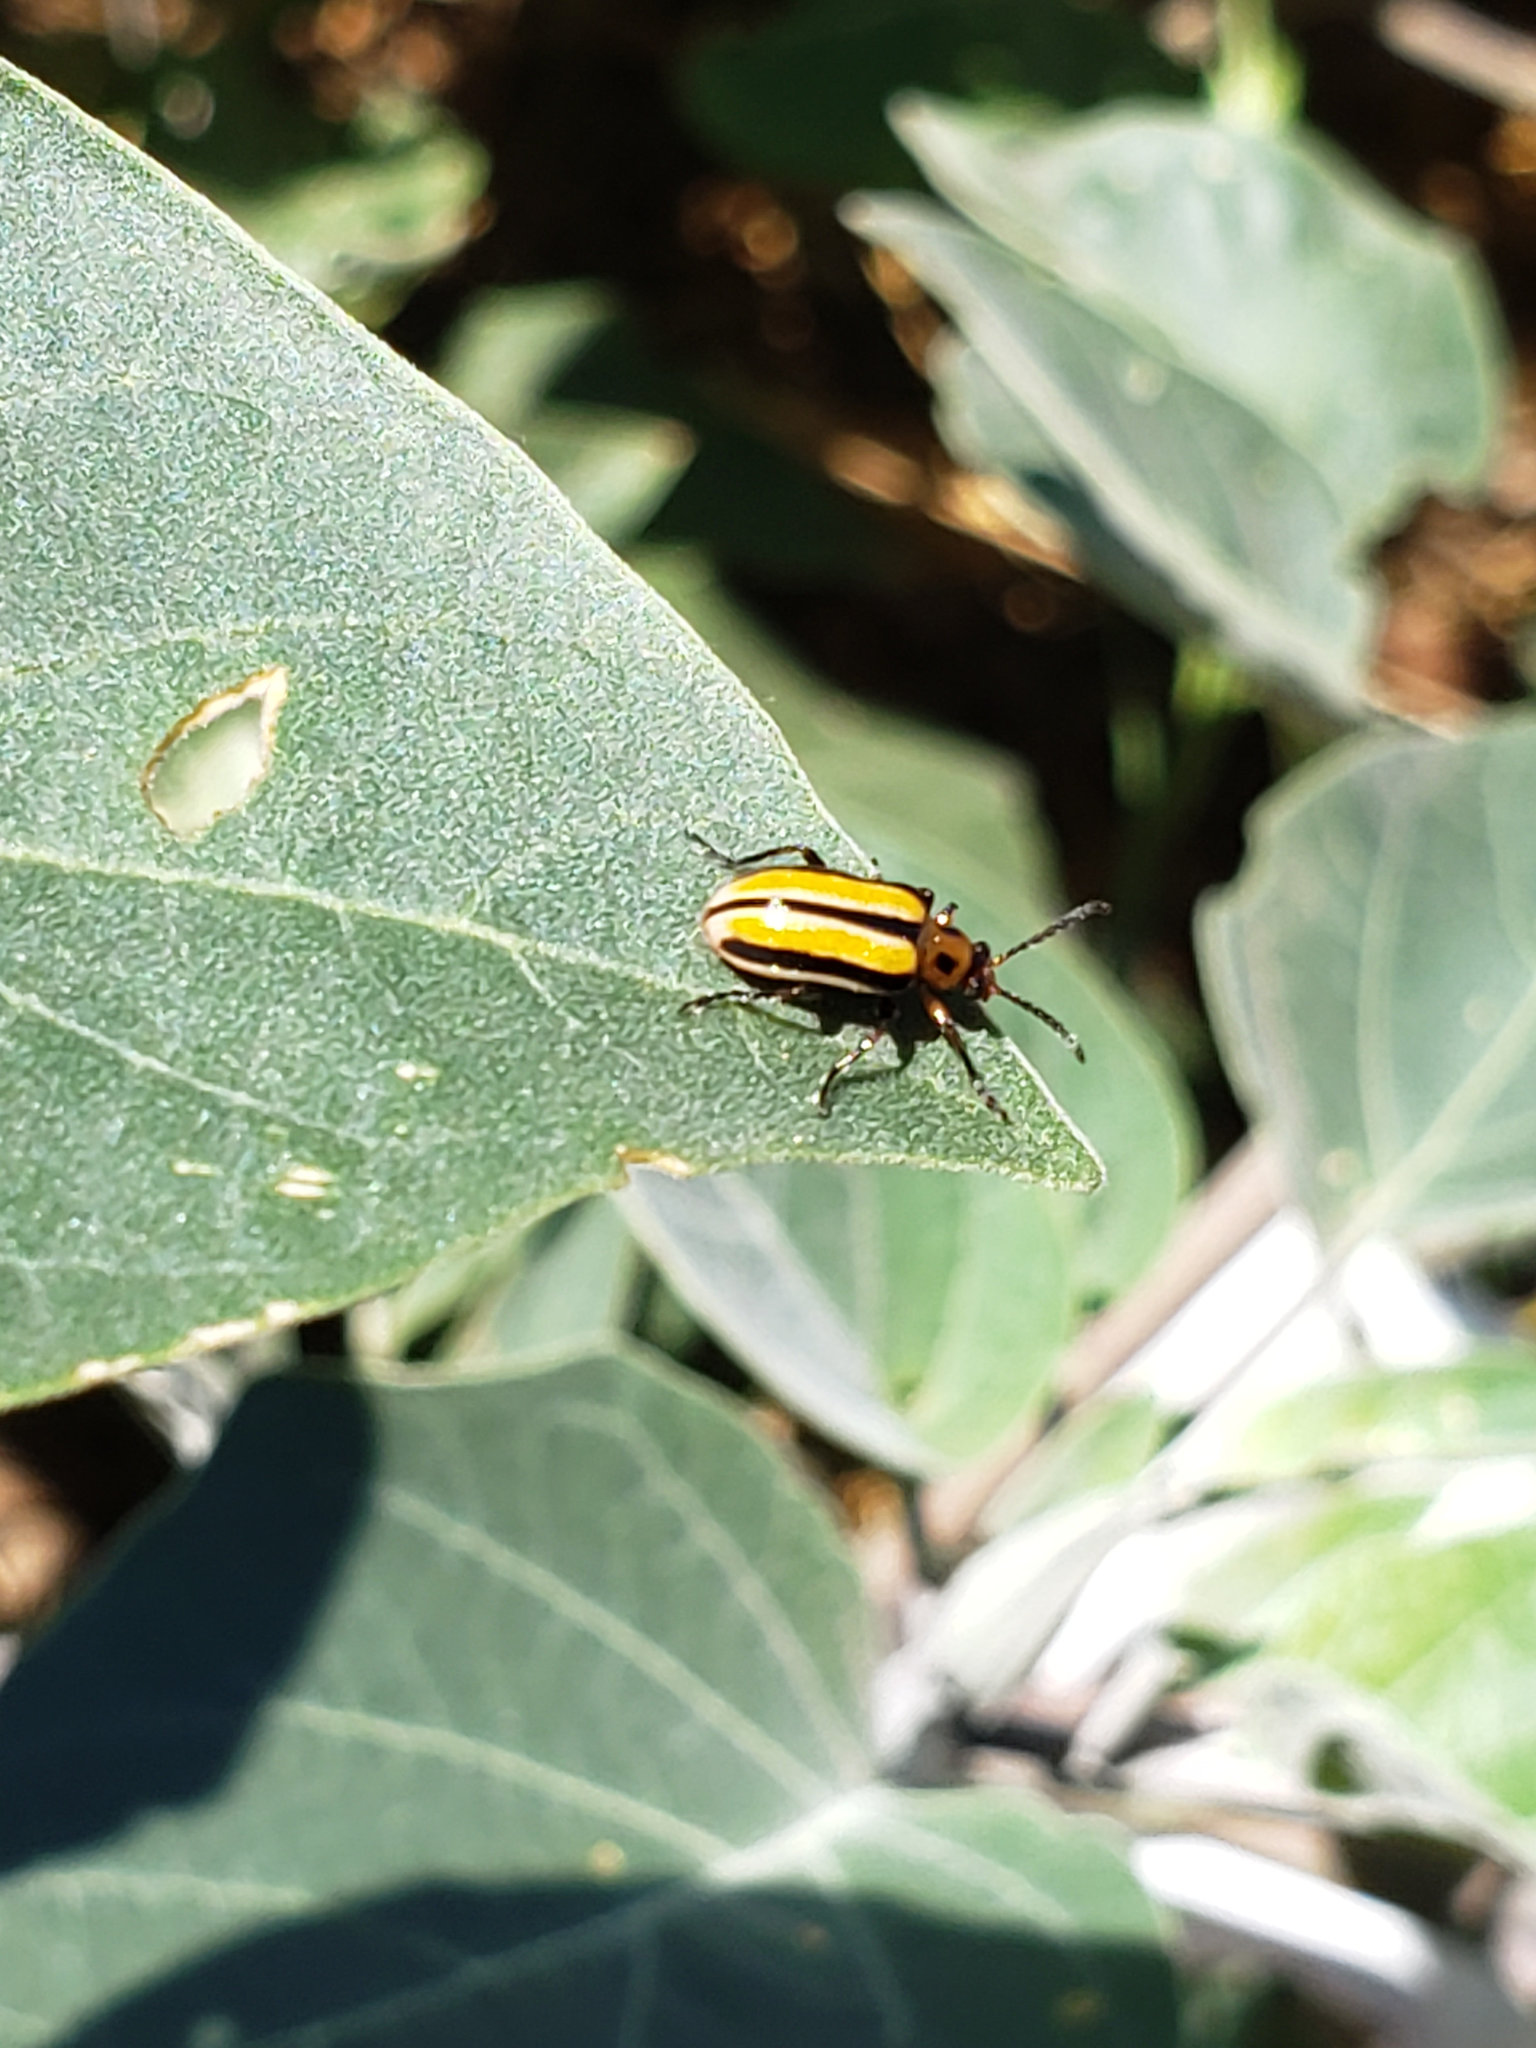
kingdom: Animalia
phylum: Arthropoda
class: Insecta
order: Coleoptera
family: Chrysomelidae
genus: Lema
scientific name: Lema daturaphila
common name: Leaf beetle
